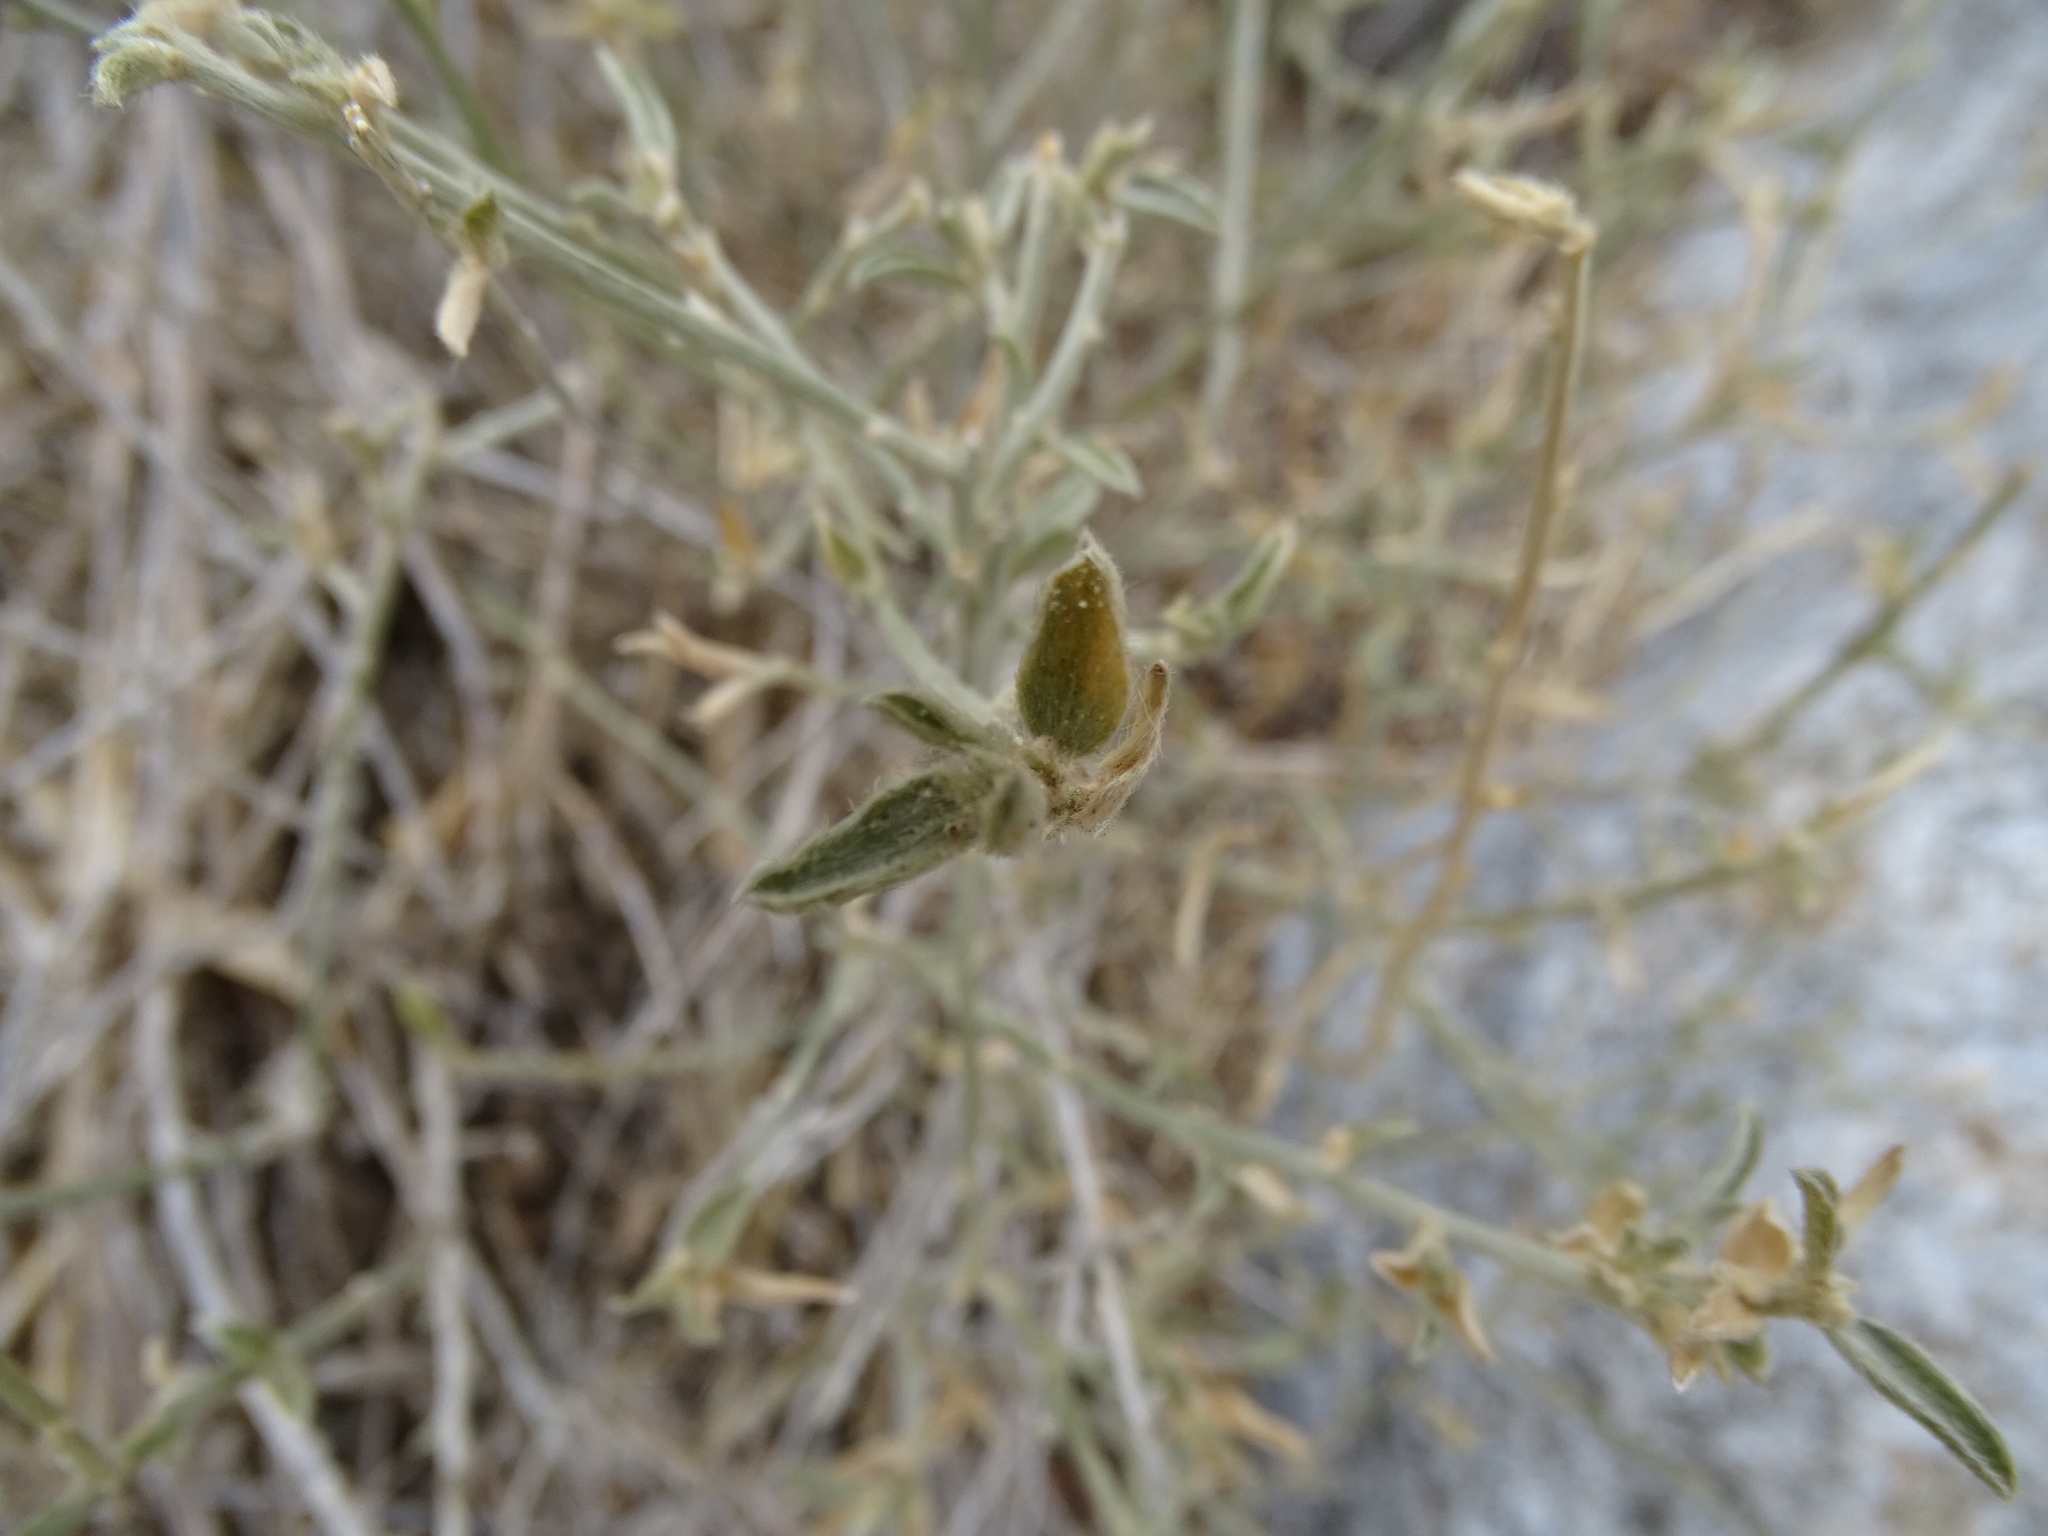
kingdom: Plantae
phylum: Tracheophyta
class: Magnoliopsida
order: Malpighiales
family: Euphorbiaceae
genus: Ditaxis
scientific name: Ditaxis lanceolata
